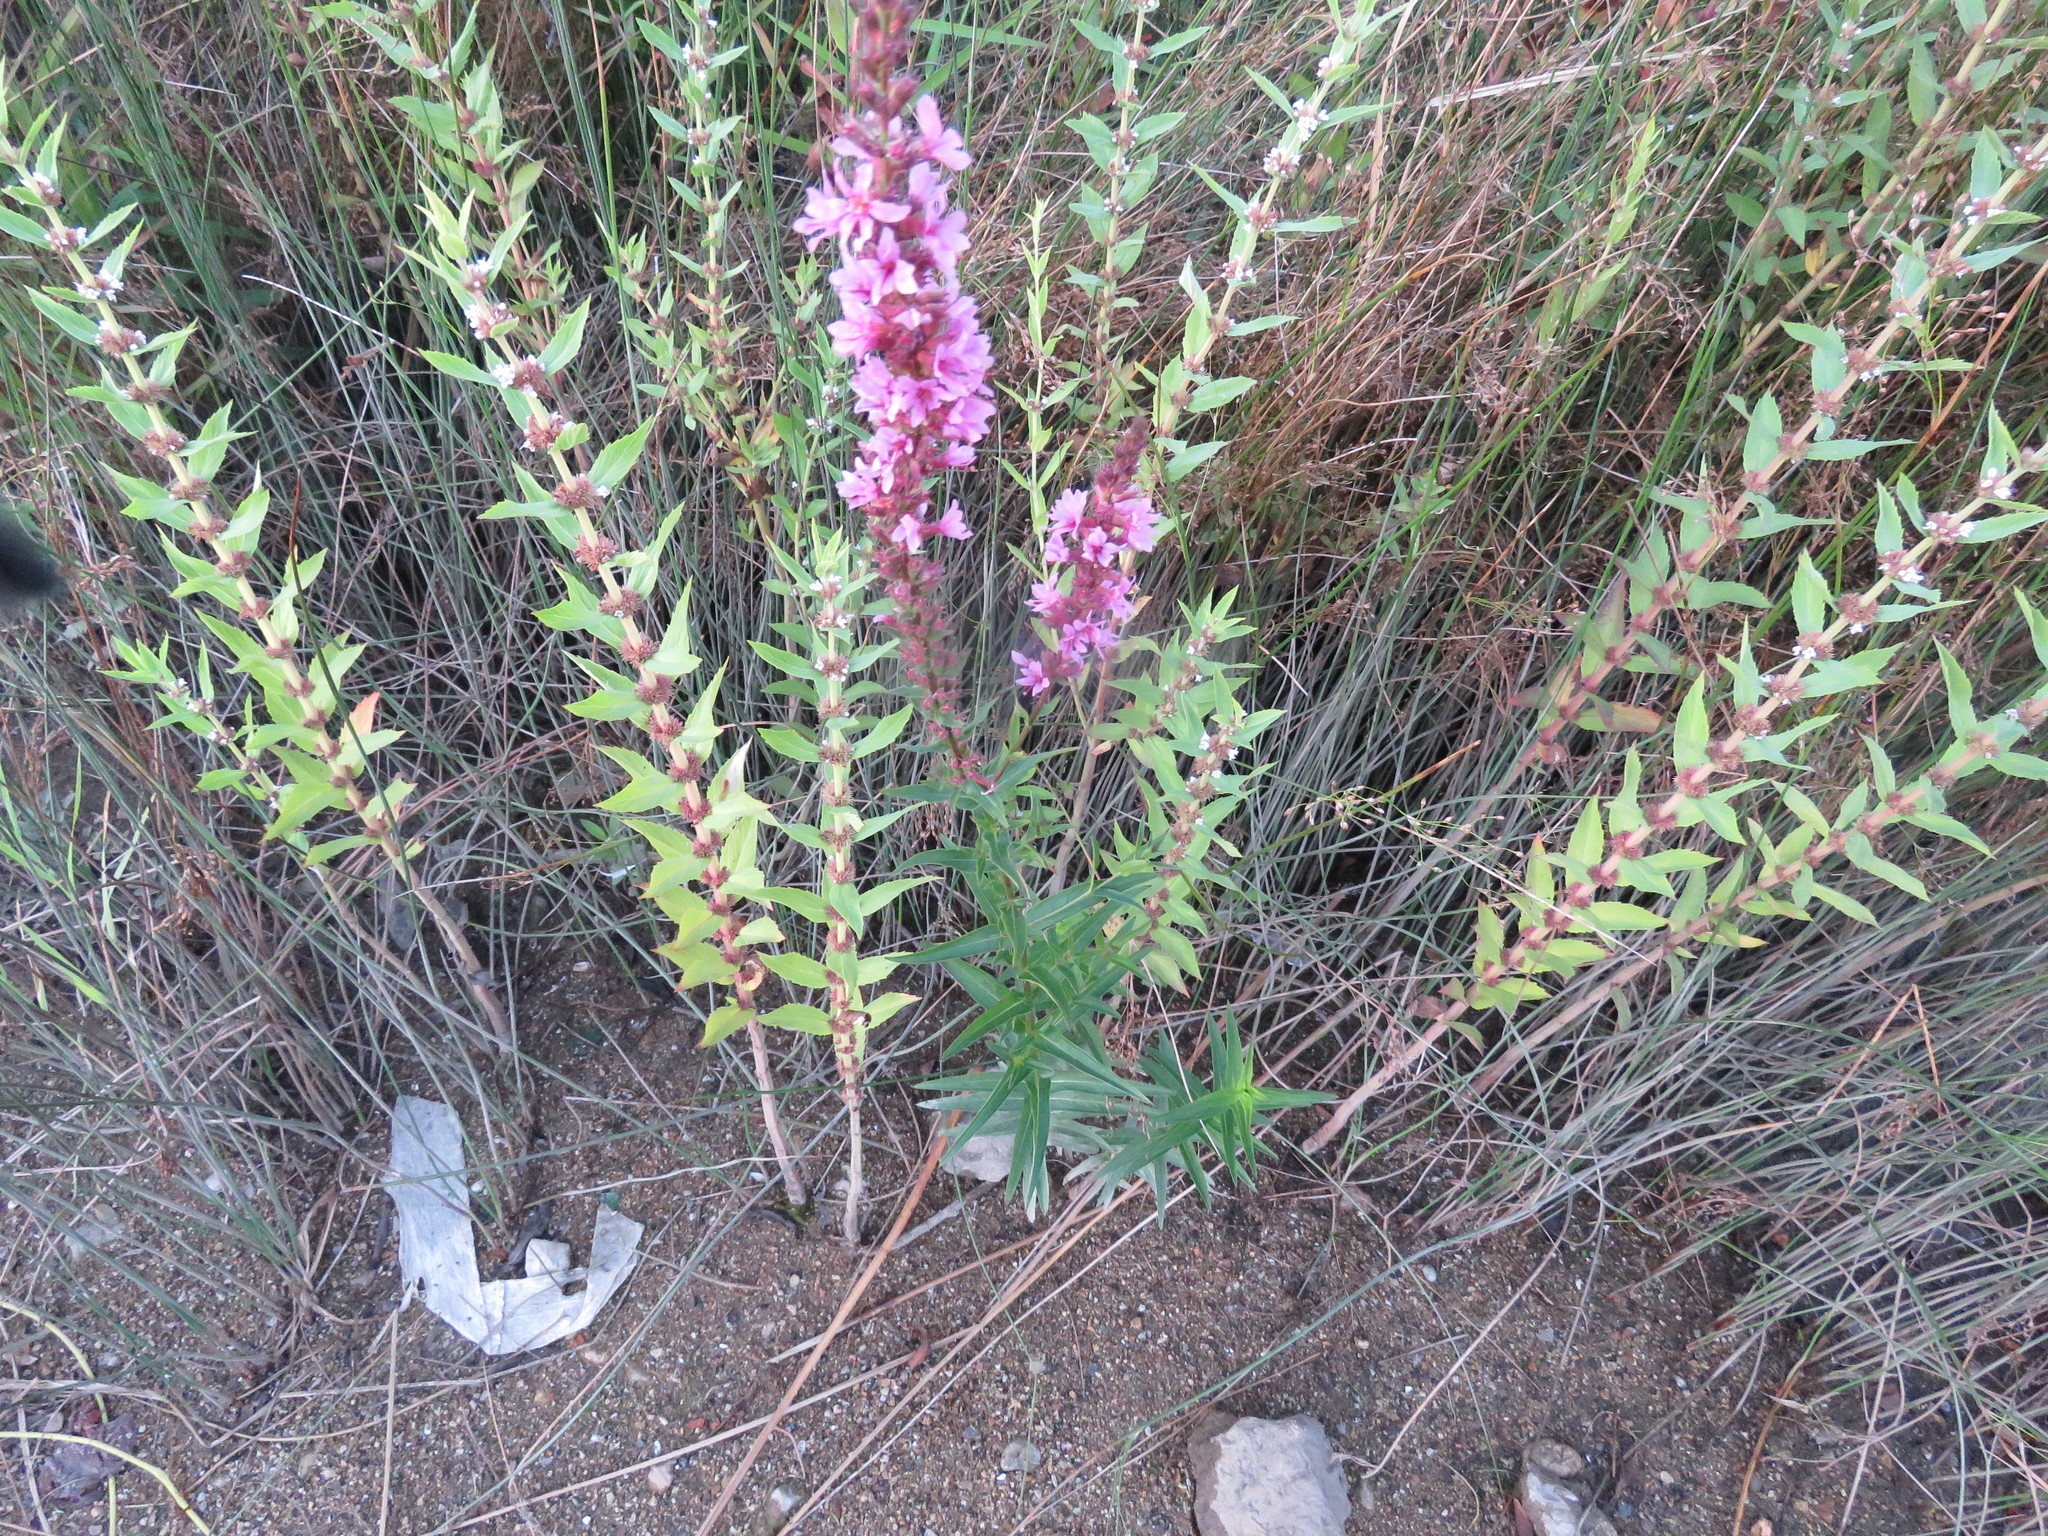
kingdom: Plantae
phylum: Tracheophyta
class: Magnoliopsida
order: Myrtales
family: Lythraceae
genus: Lythrum
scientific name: Lythrum salicaria
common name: Purple loosestrife
